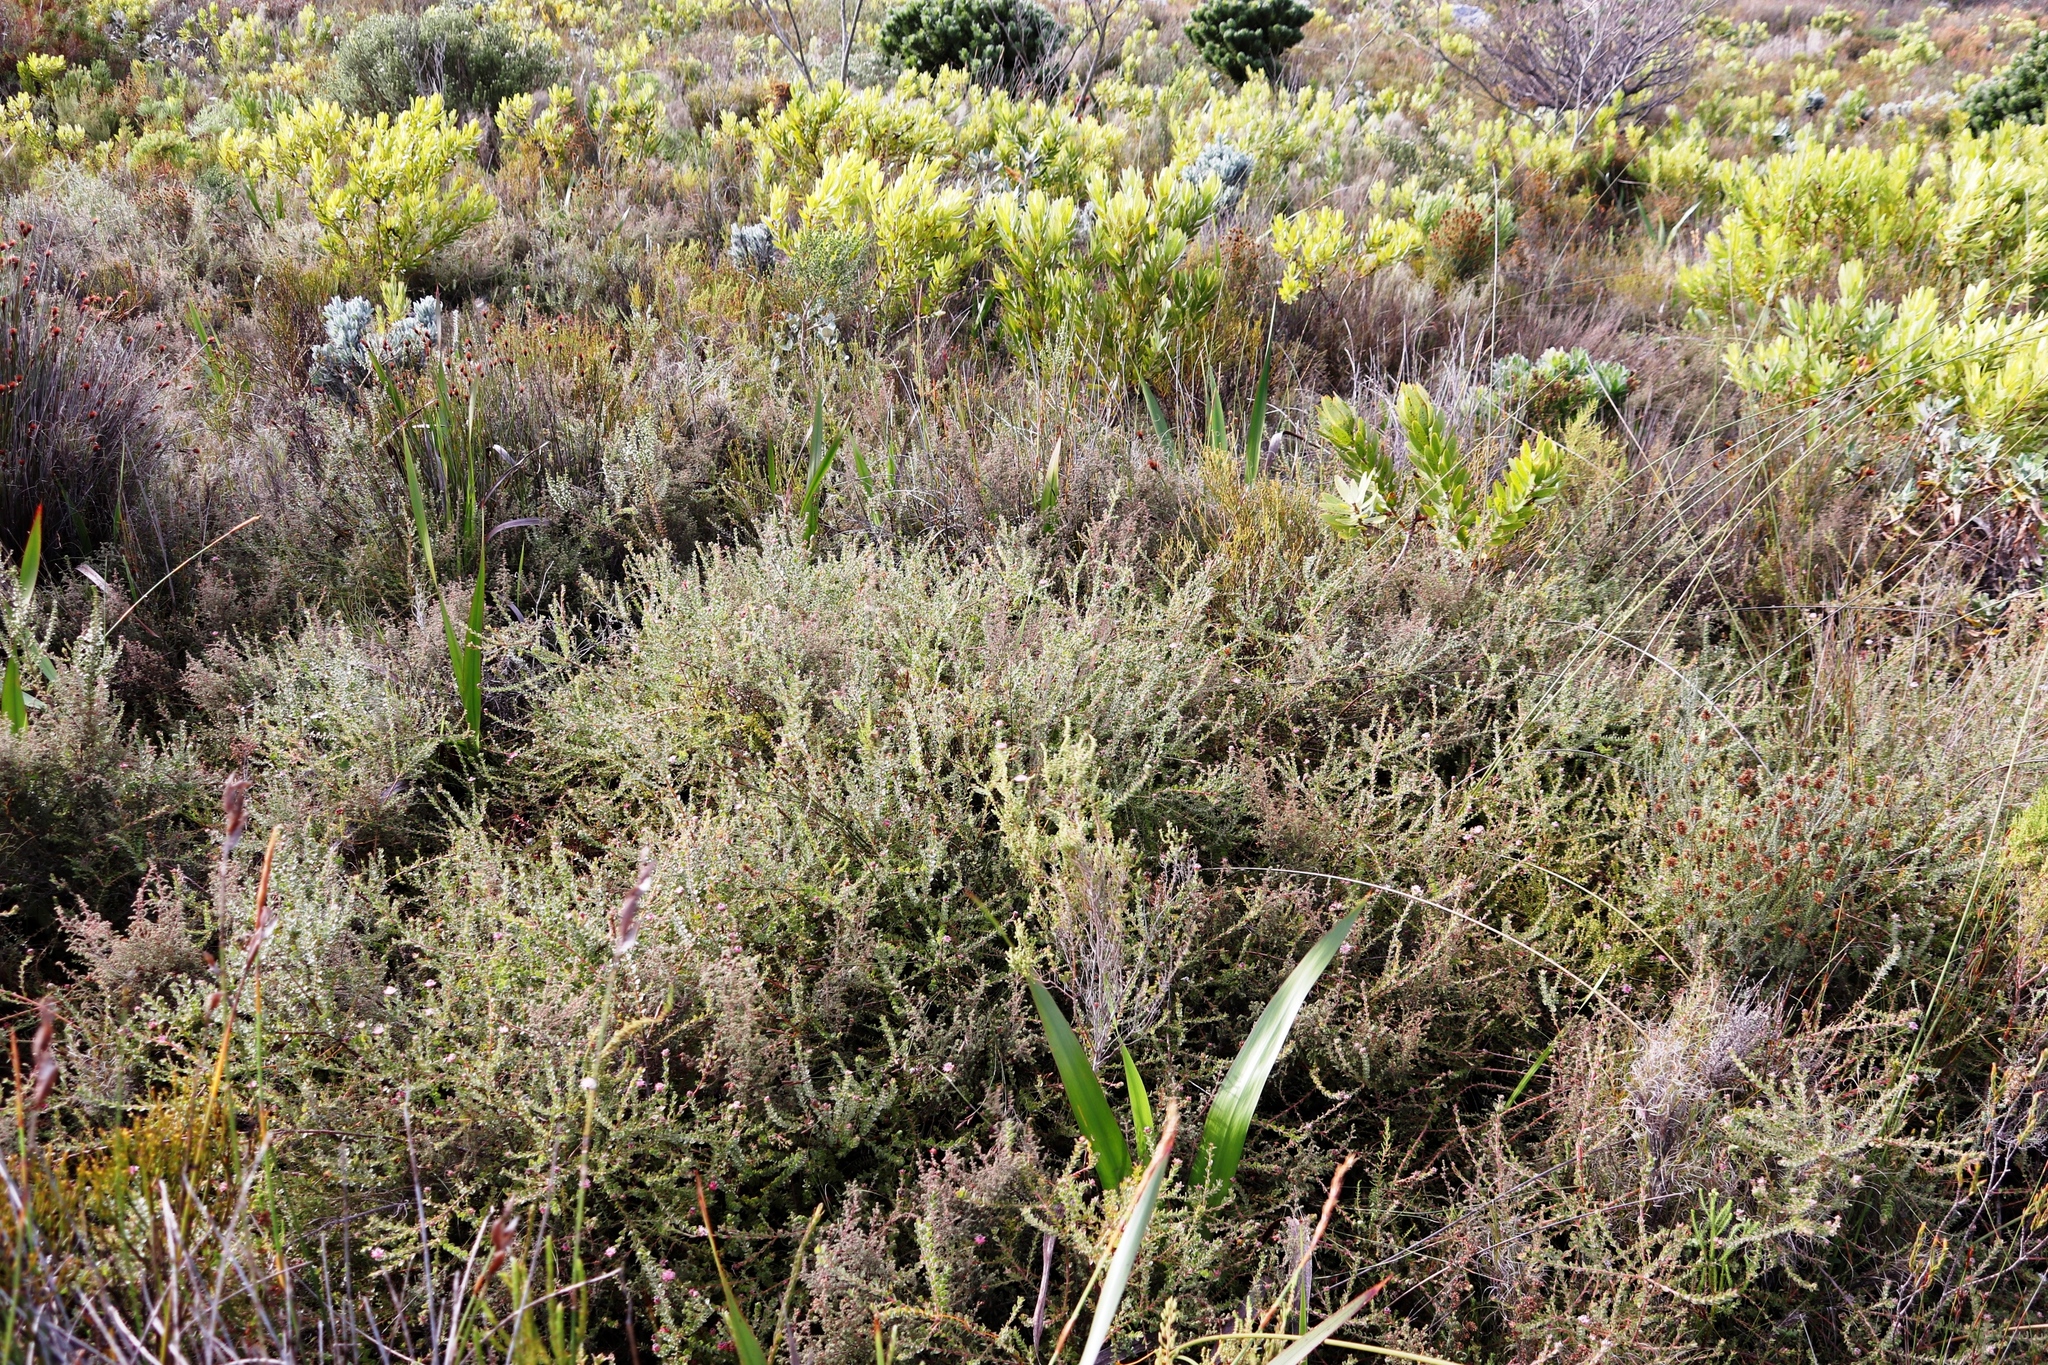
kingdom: Plantae
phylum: Tracheophyta
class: Magnoliopsida
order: Proteales
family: Proteaceae
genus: Diastella
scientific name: Diastella divaricata
